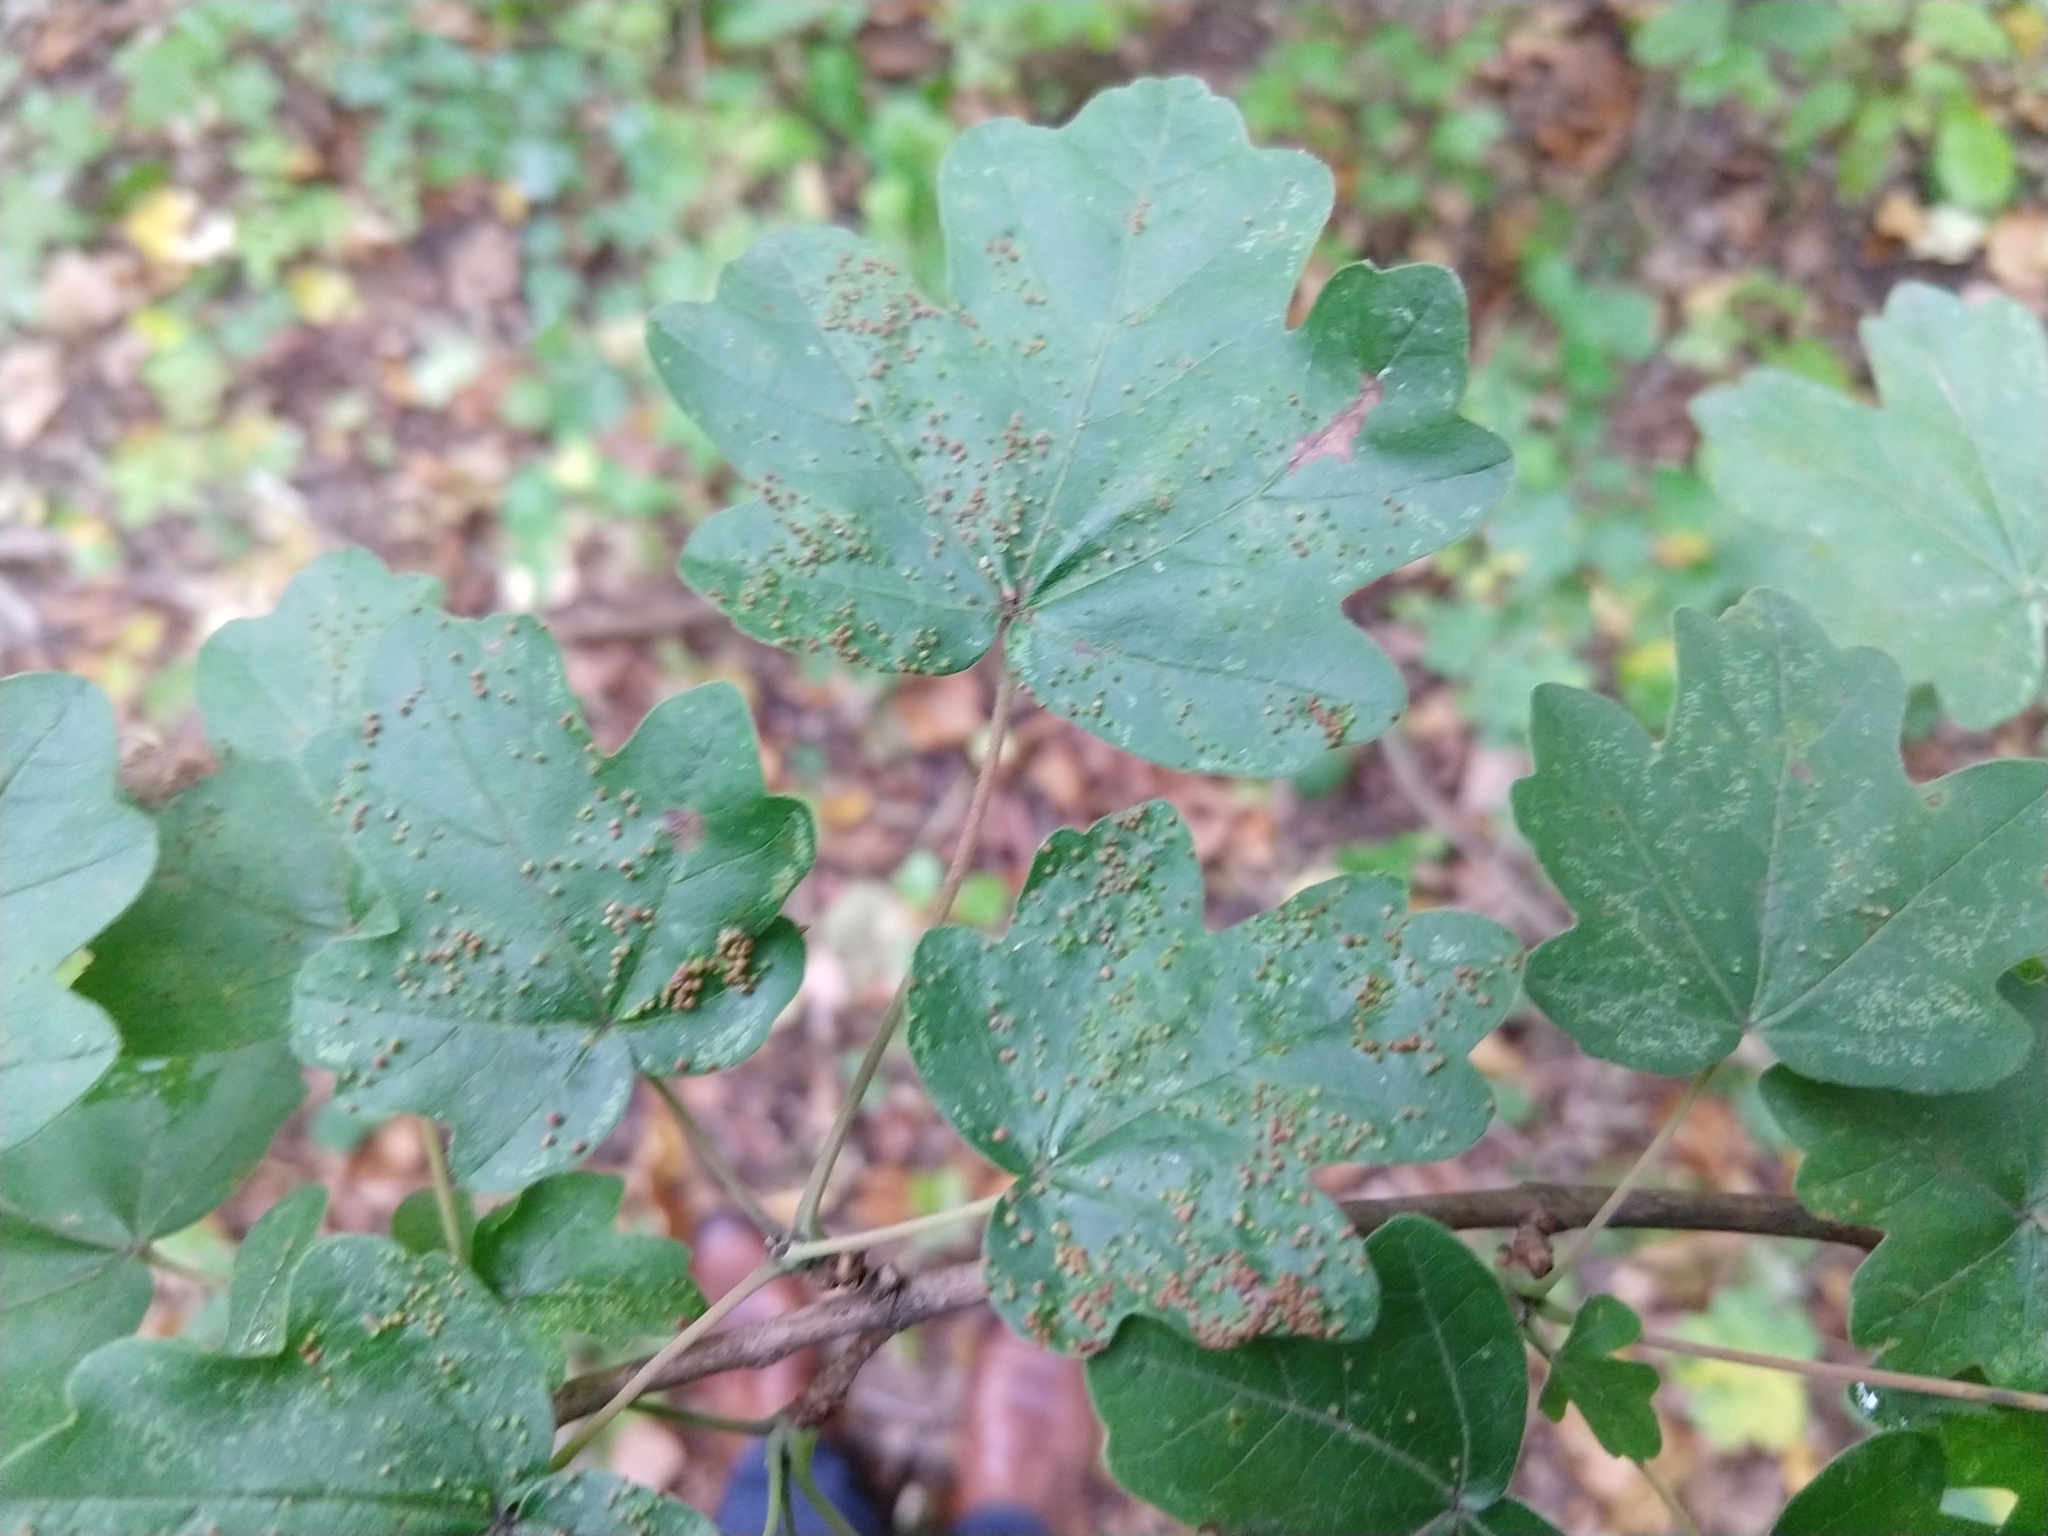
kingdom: Animalia
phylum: Arthropoda
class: Arachnida
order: Trombidiformes
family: Eriophyidae
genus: Aceria
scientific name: Aceria myriadeum
